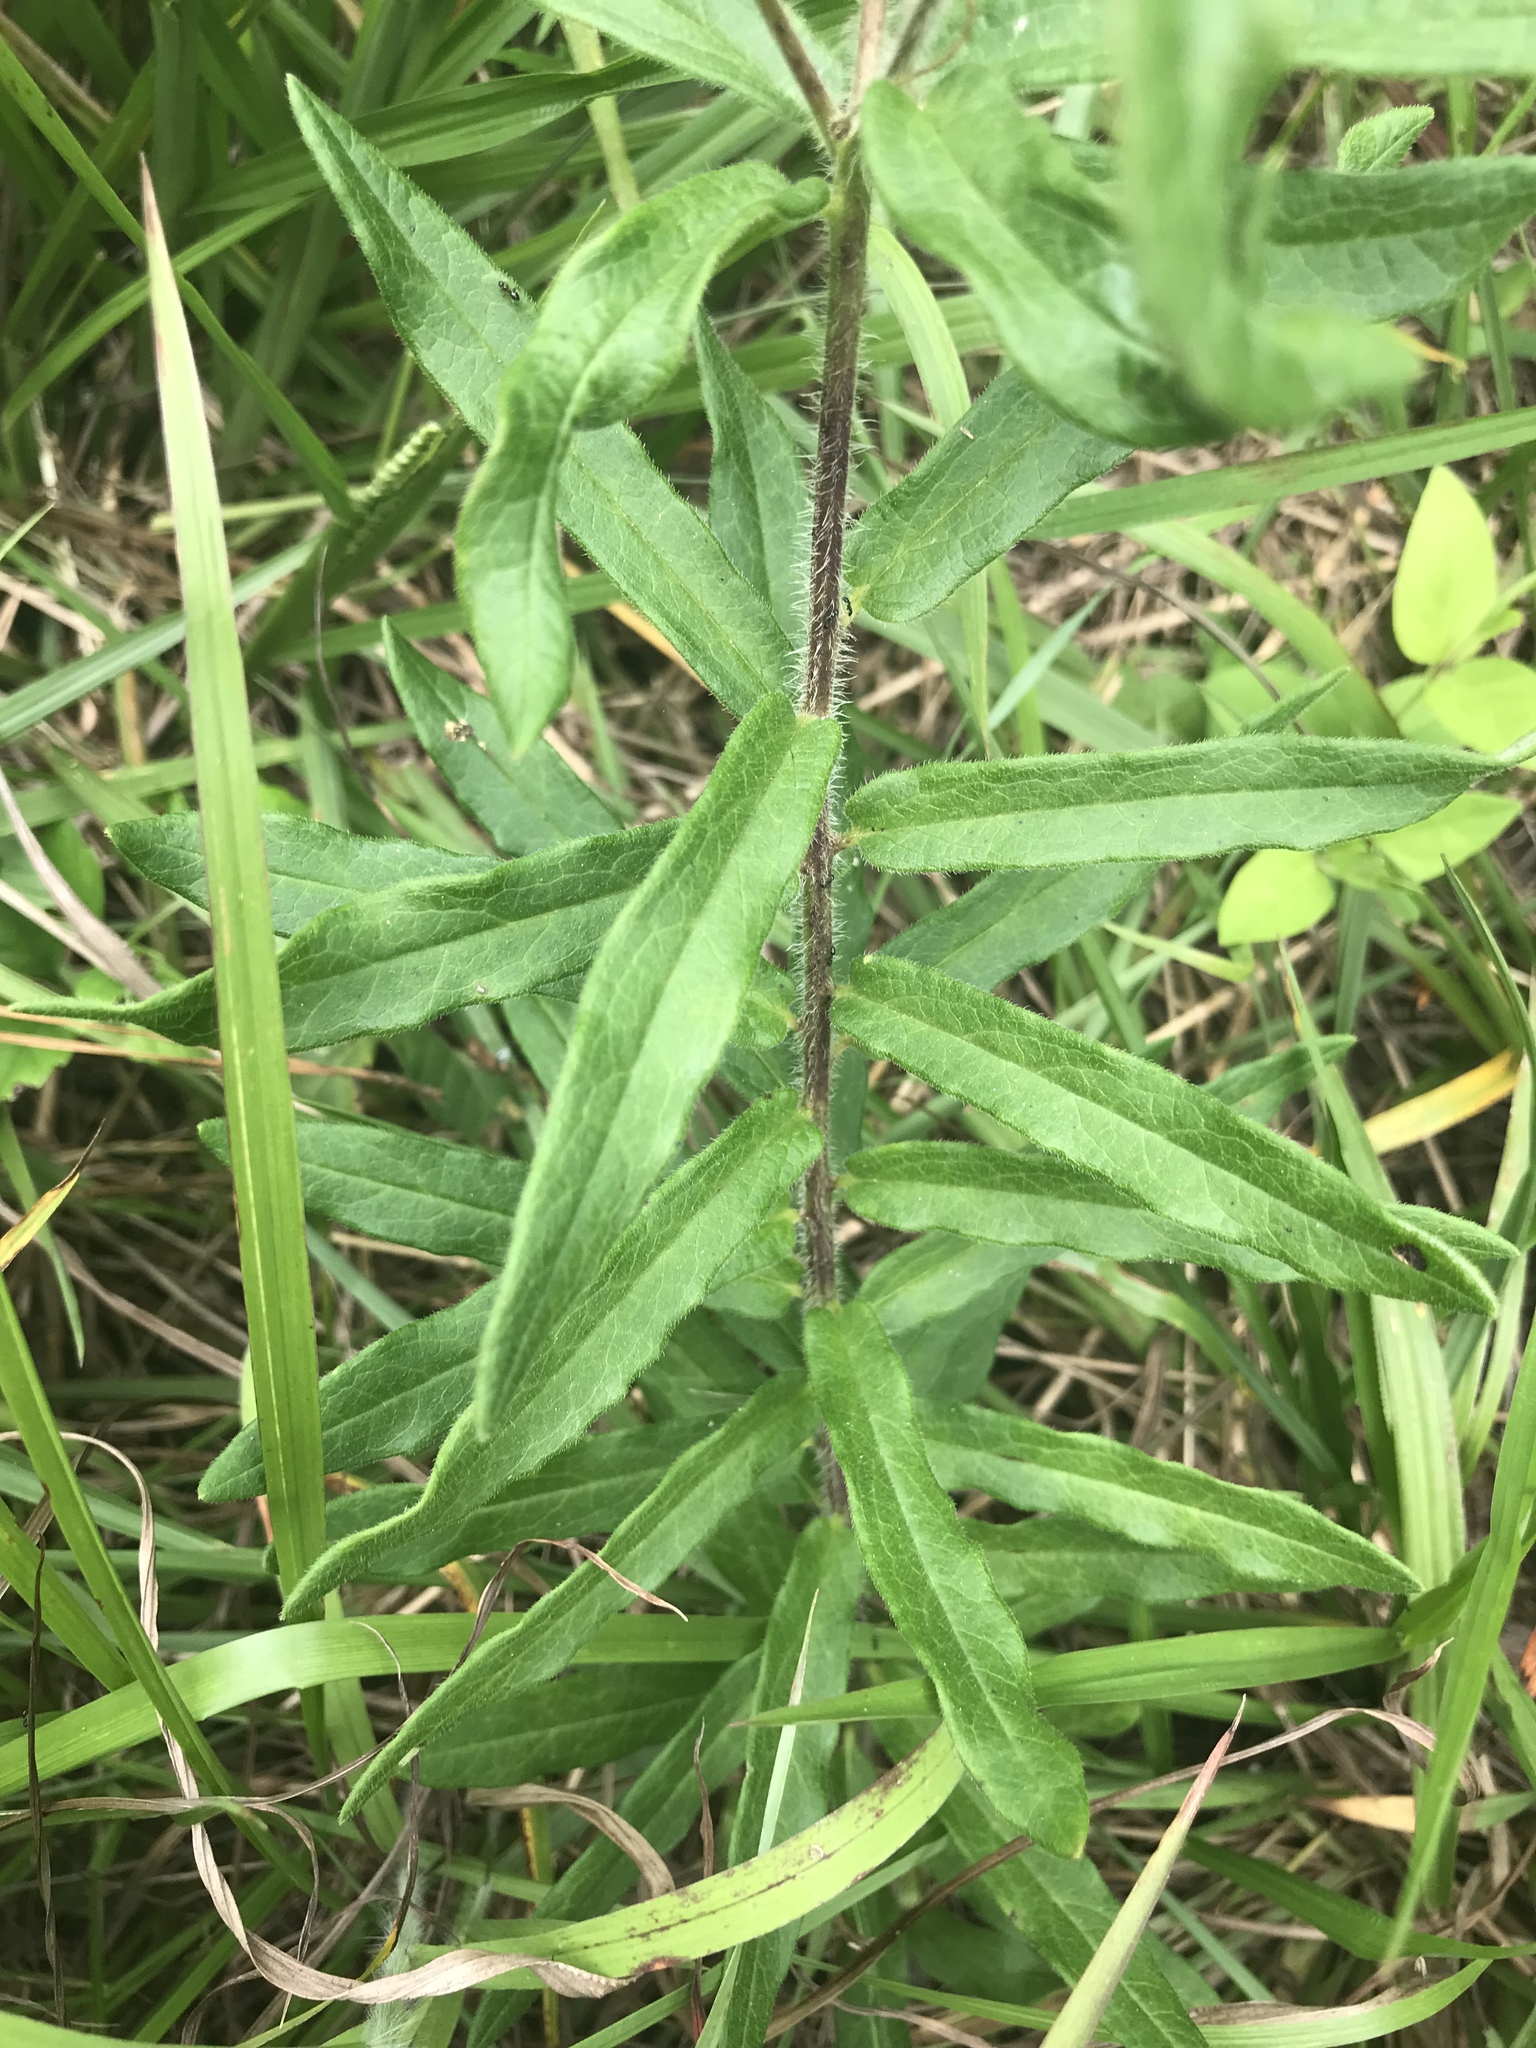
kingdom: Plantae
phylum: Tracheophyta
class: Magnoliopsida
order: Gentianales
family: Apocynaceae
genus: Asclepias
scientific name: Asclepias tuberosa
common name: Butterfly milkweed
